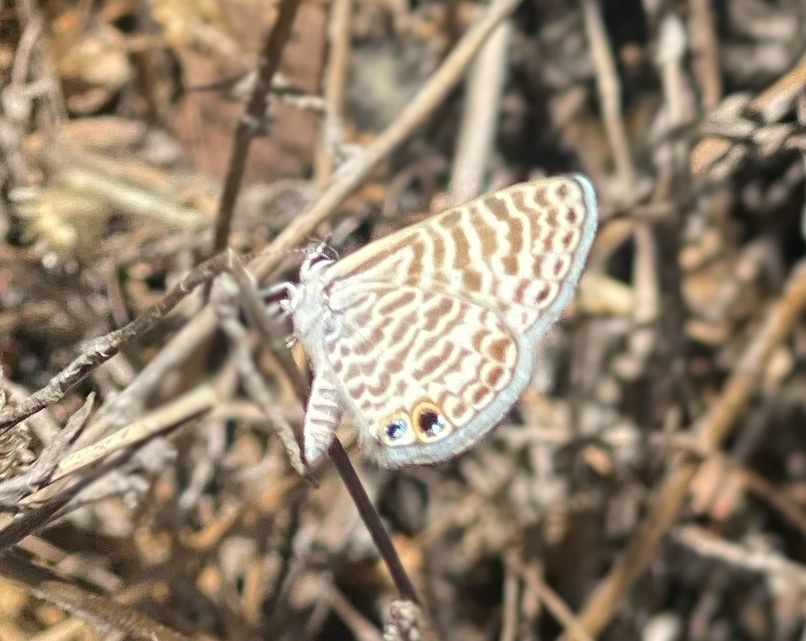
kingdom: Animalia
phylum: Arthropoda
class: Insecta
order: Lepidoptera
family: Lycaenidae
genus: Leptotes
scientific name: Leptotes marina
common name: Marine blue
